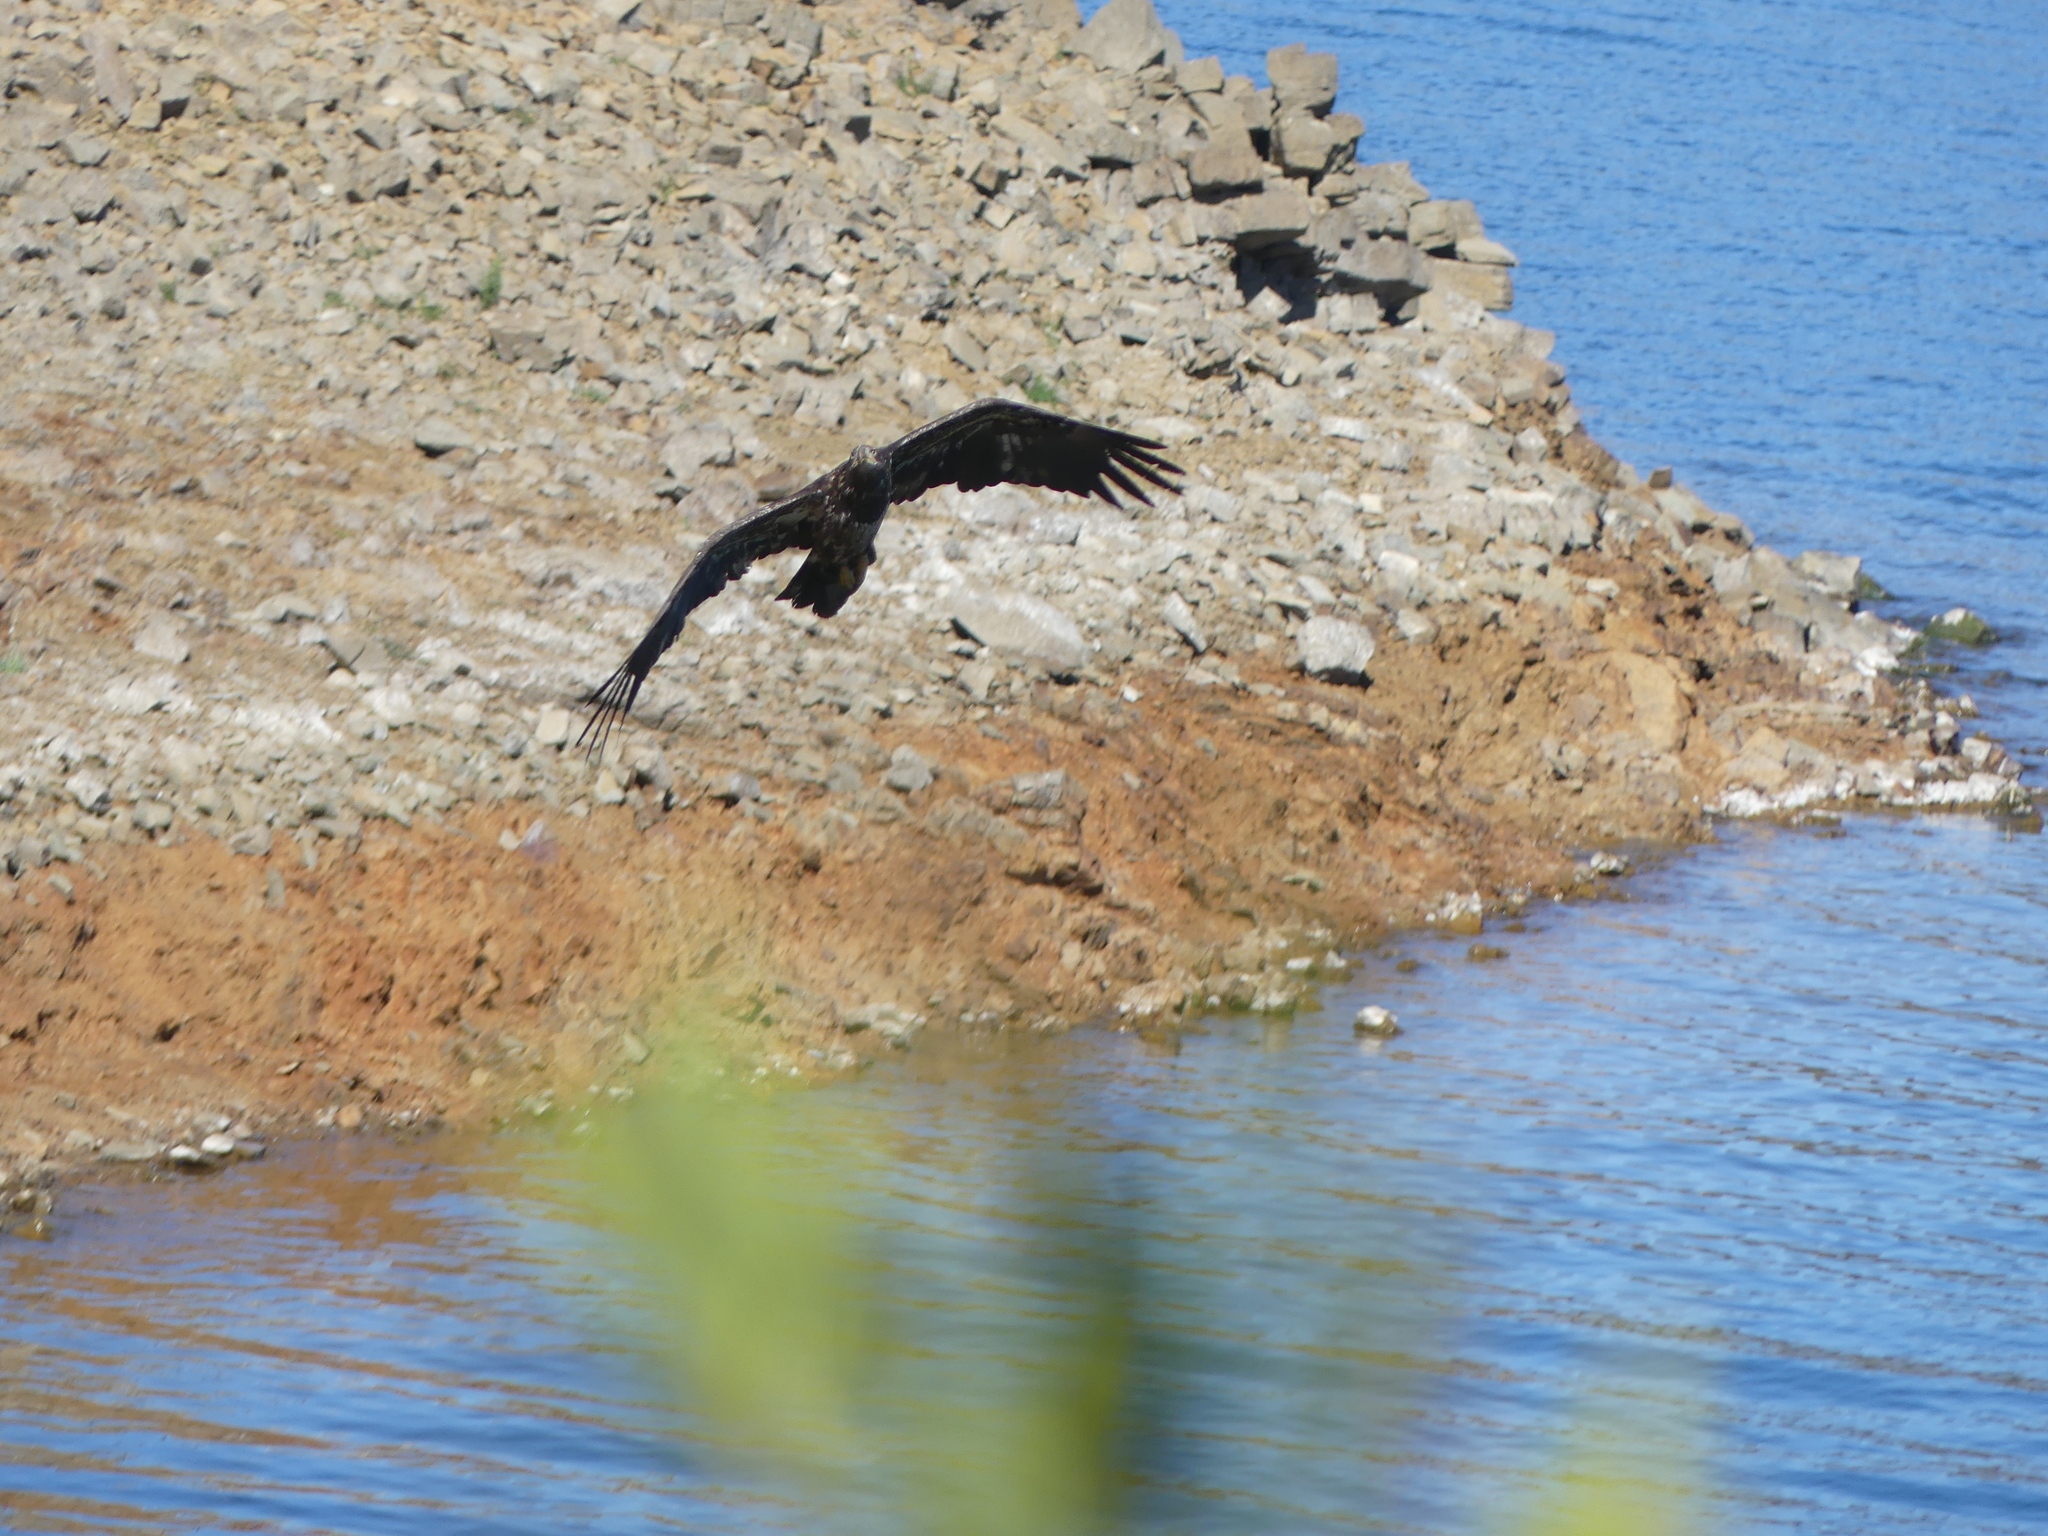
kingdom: Animalia
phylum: Chordata
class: Aves
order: Accipitriformes
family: Accipitridae
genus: Haliaeetus
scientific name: Haliaeetus leucocephalus
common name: Bald eagle
